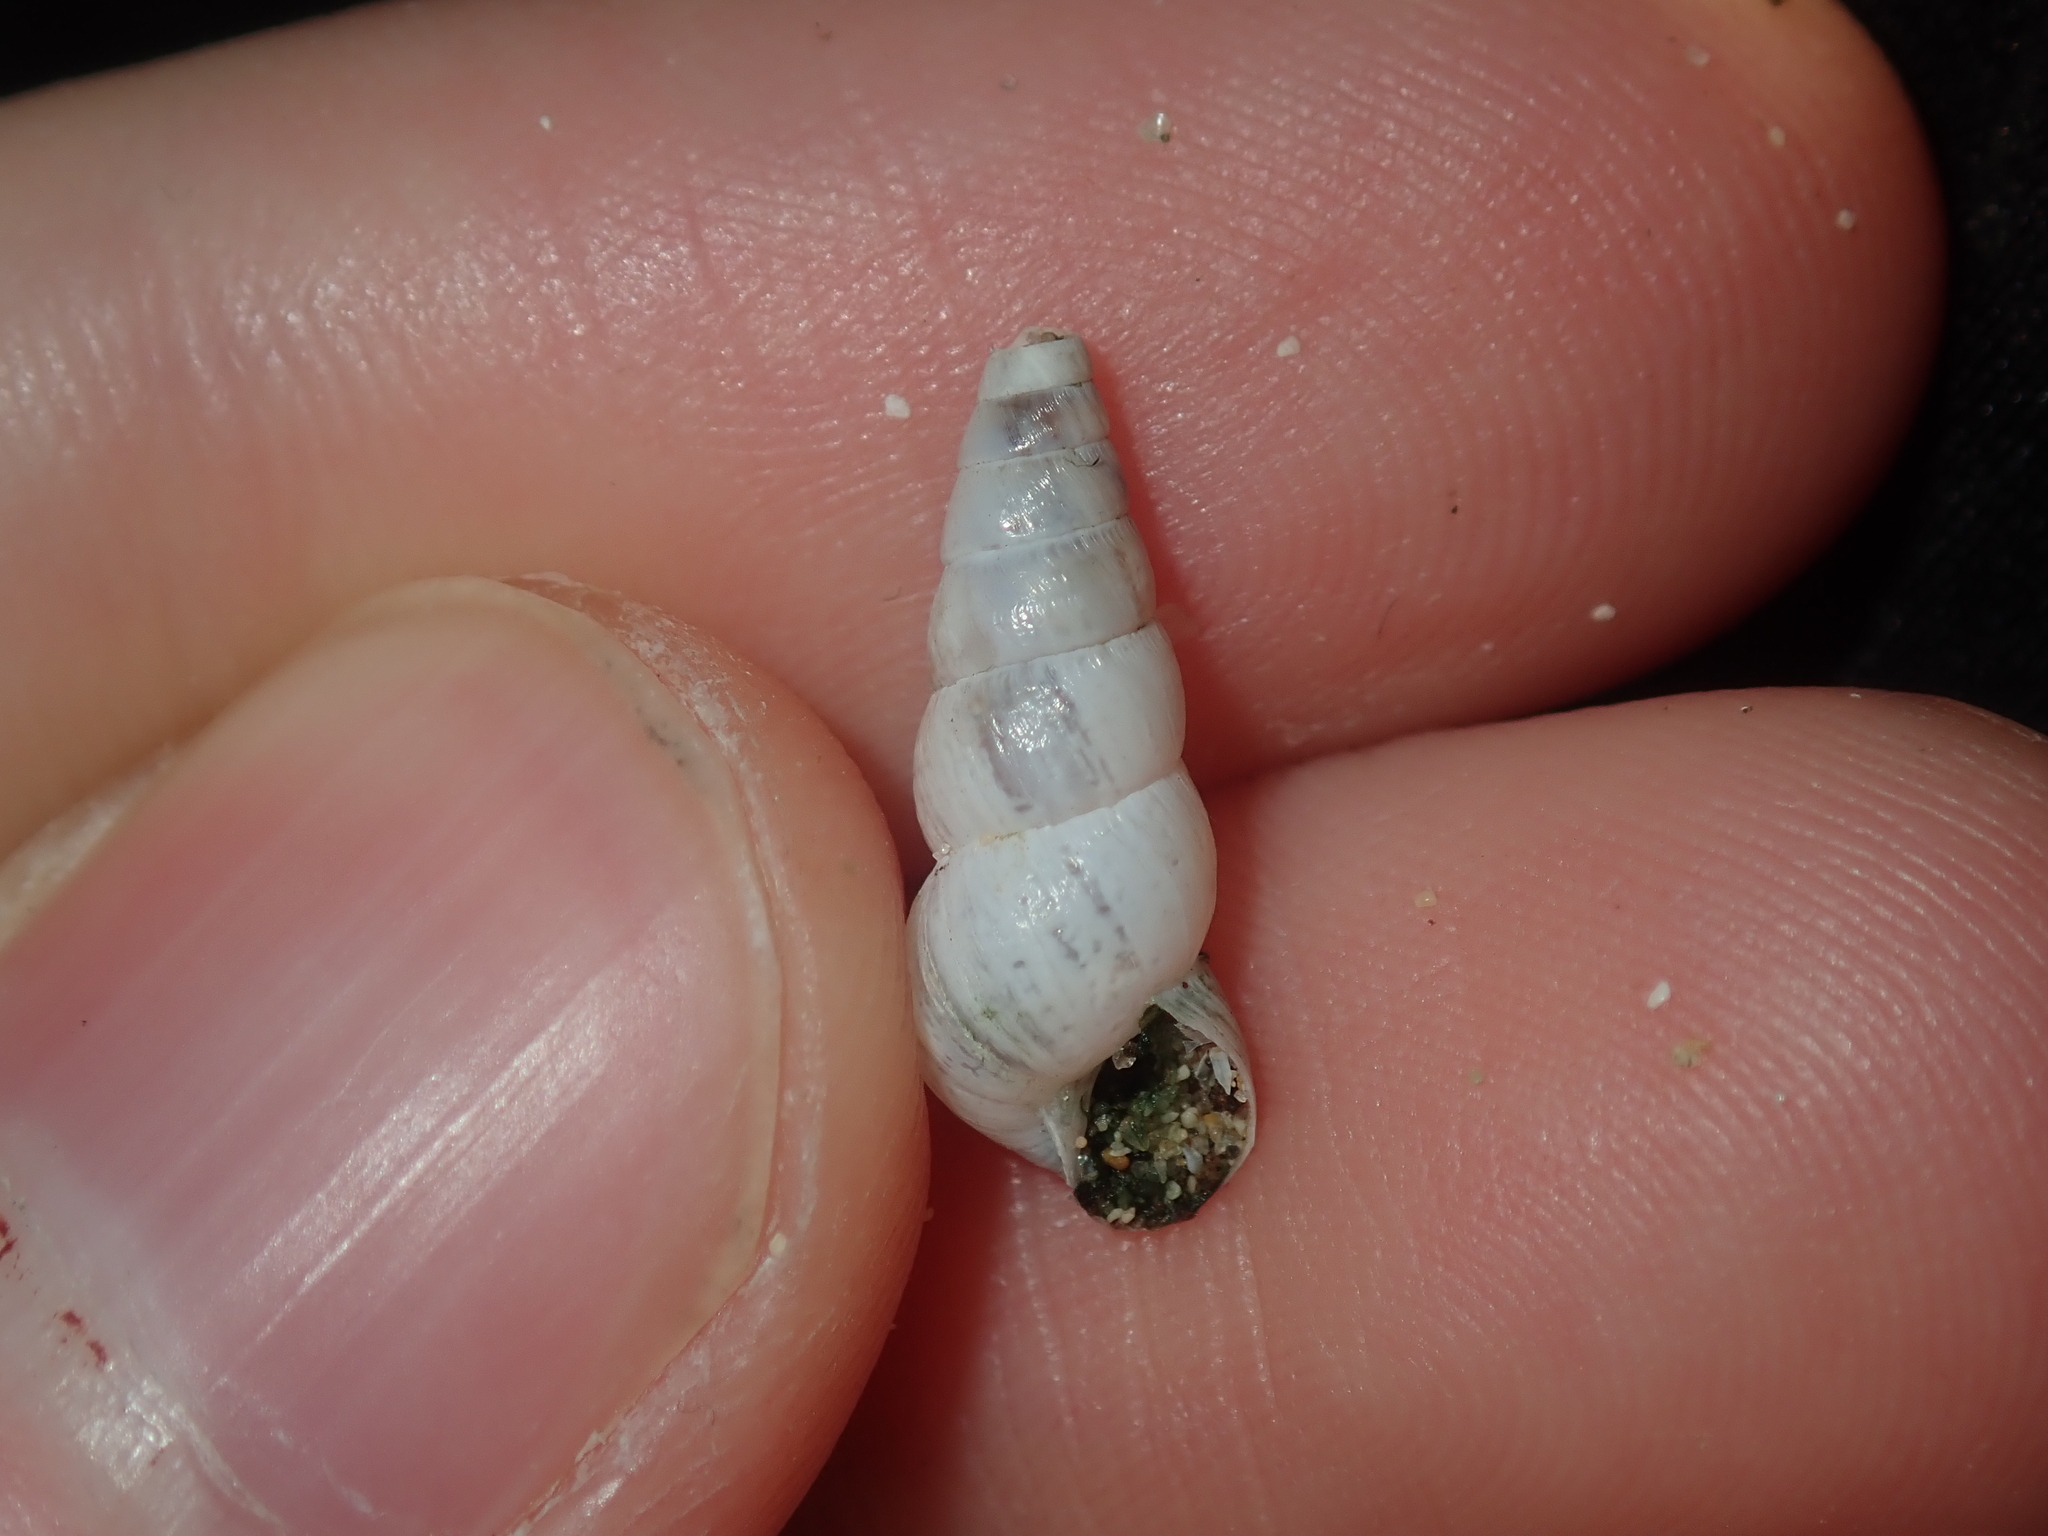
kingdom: Animalia
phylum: Mollusca
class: Gastropoda
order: Stylommatophora
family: Geomitridae
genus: Cochlicella
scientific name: Cochlicella acuta
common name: Pointed snail
